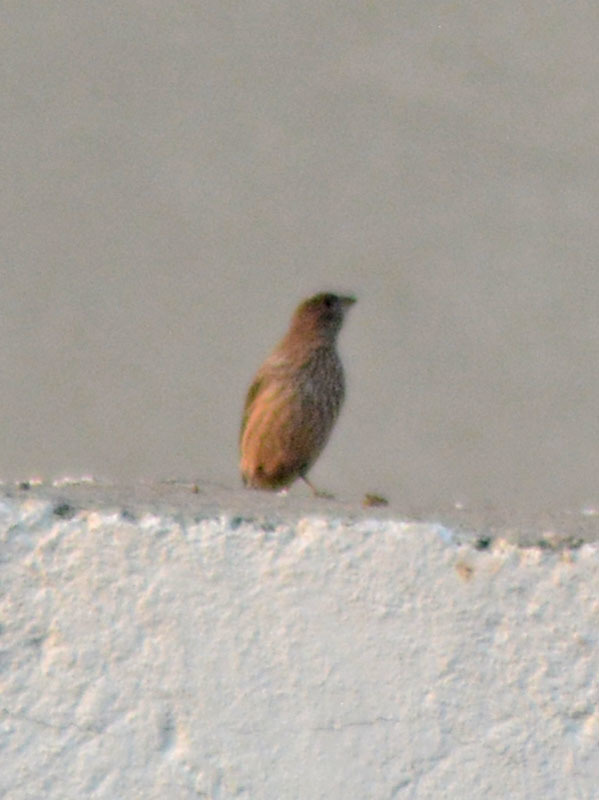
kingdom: Animalia
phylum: Chordata
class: Aves
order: Passeriformes
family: Fringillidae
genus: Haemorhous
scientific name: Haemorhous mexicanus
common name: House finch
